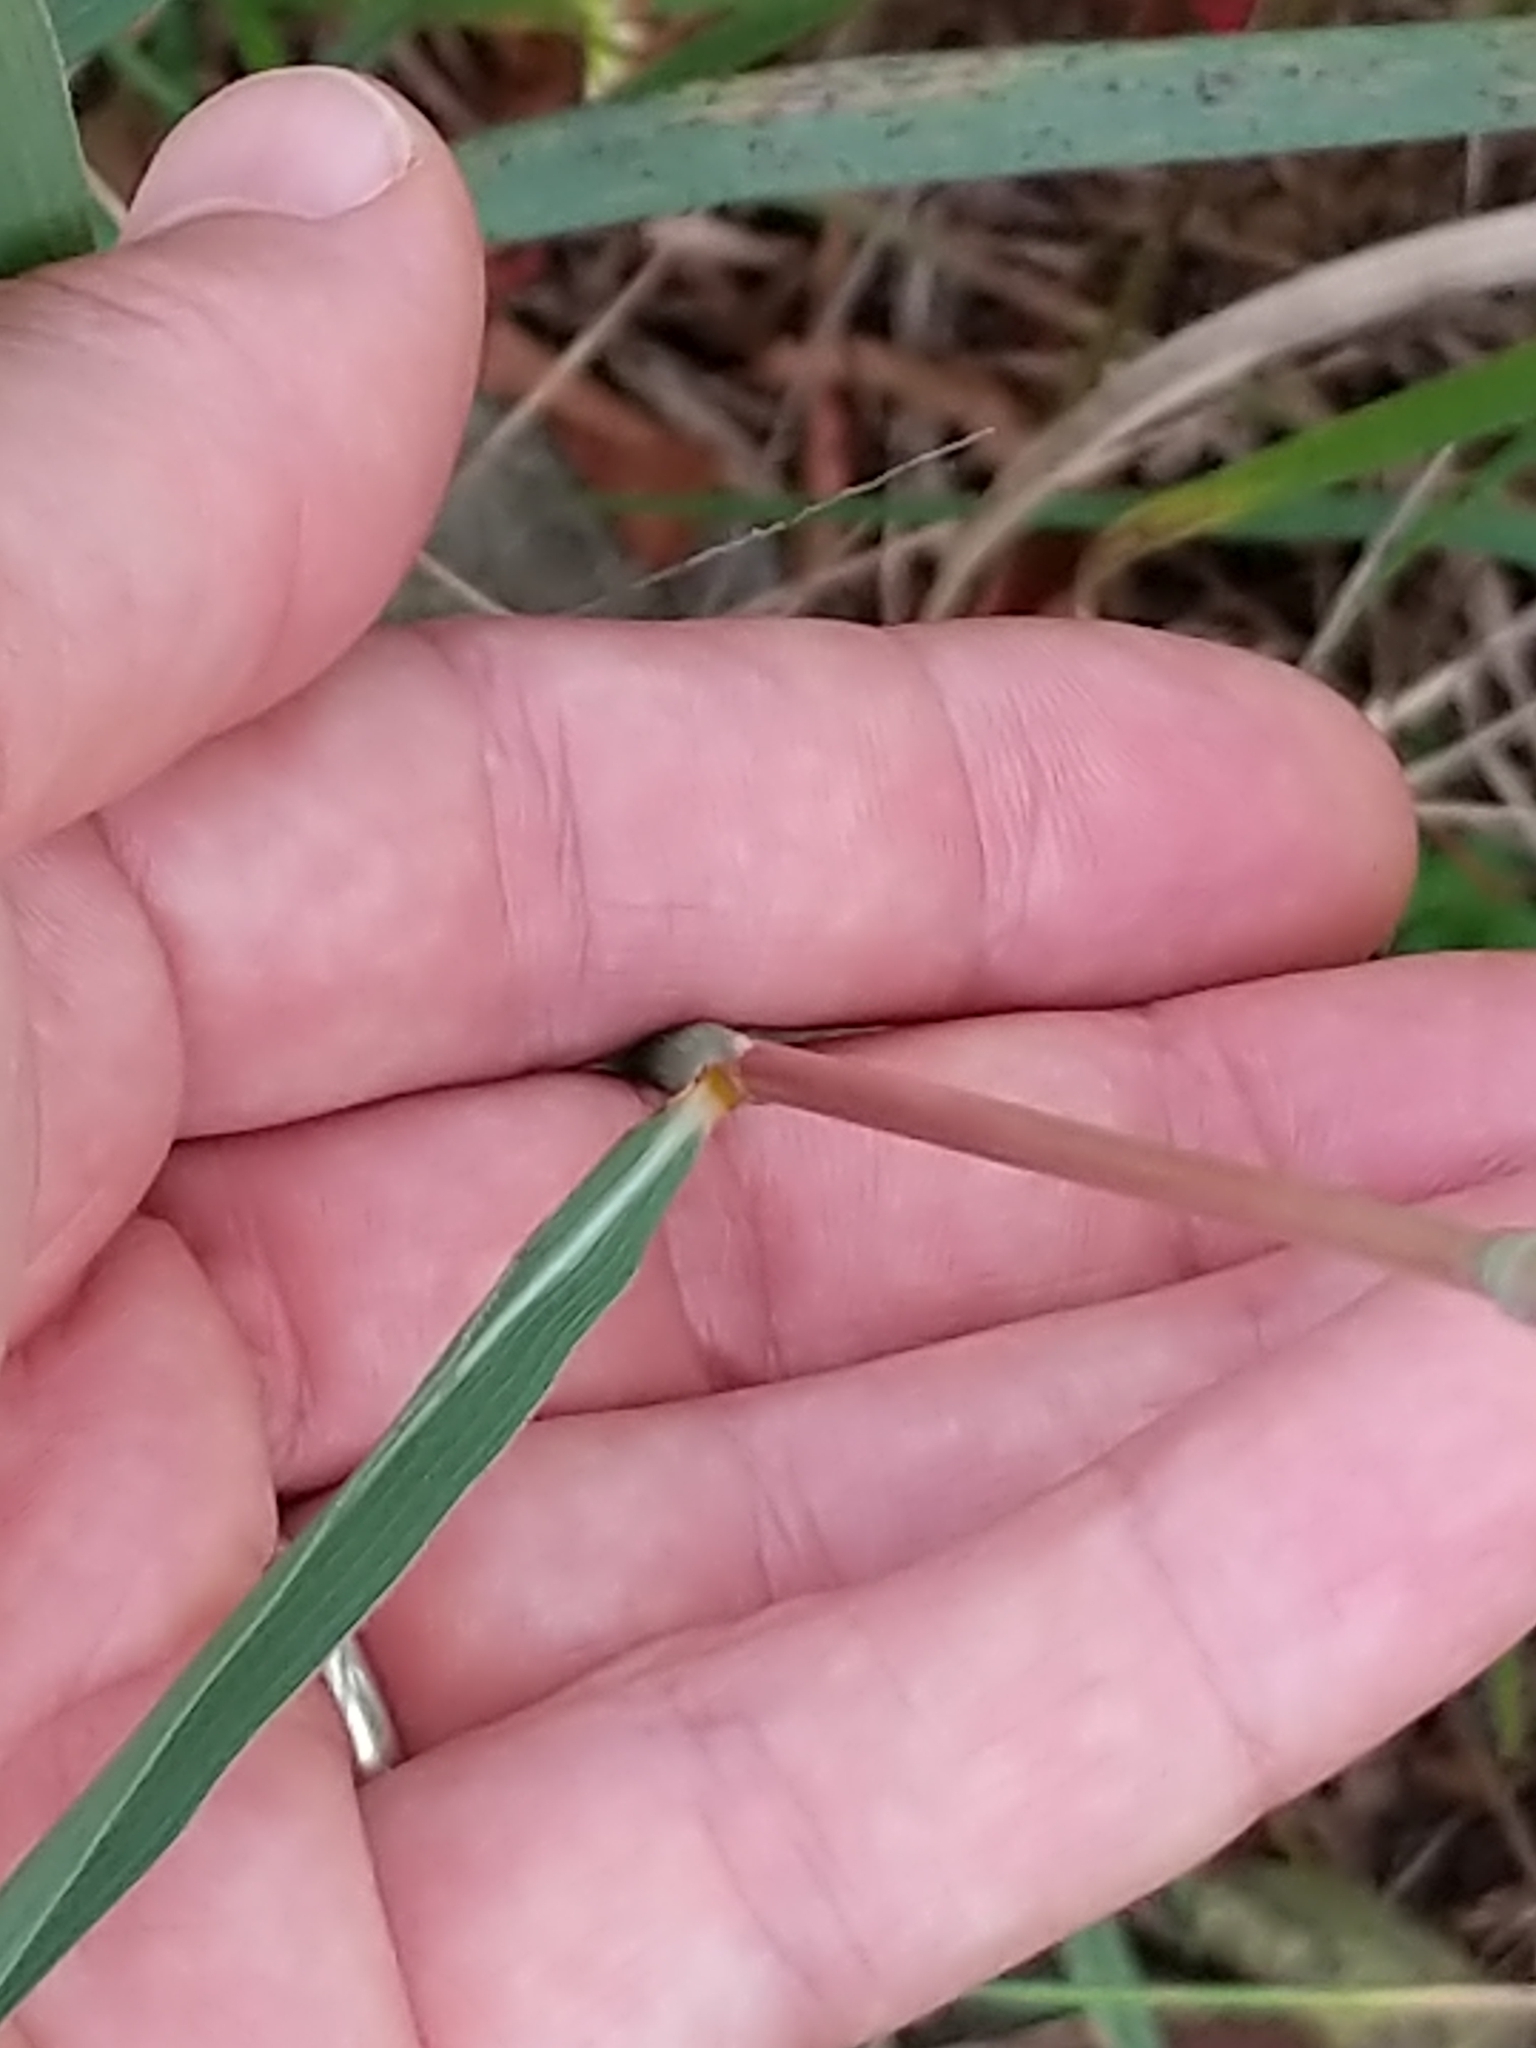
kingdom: Plantae
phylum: Tracheophyta
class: Liliopsida
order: Poales
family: Poaceae
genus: Sorghastrum
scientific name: Sorghastrum nutans
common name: Indian grass
